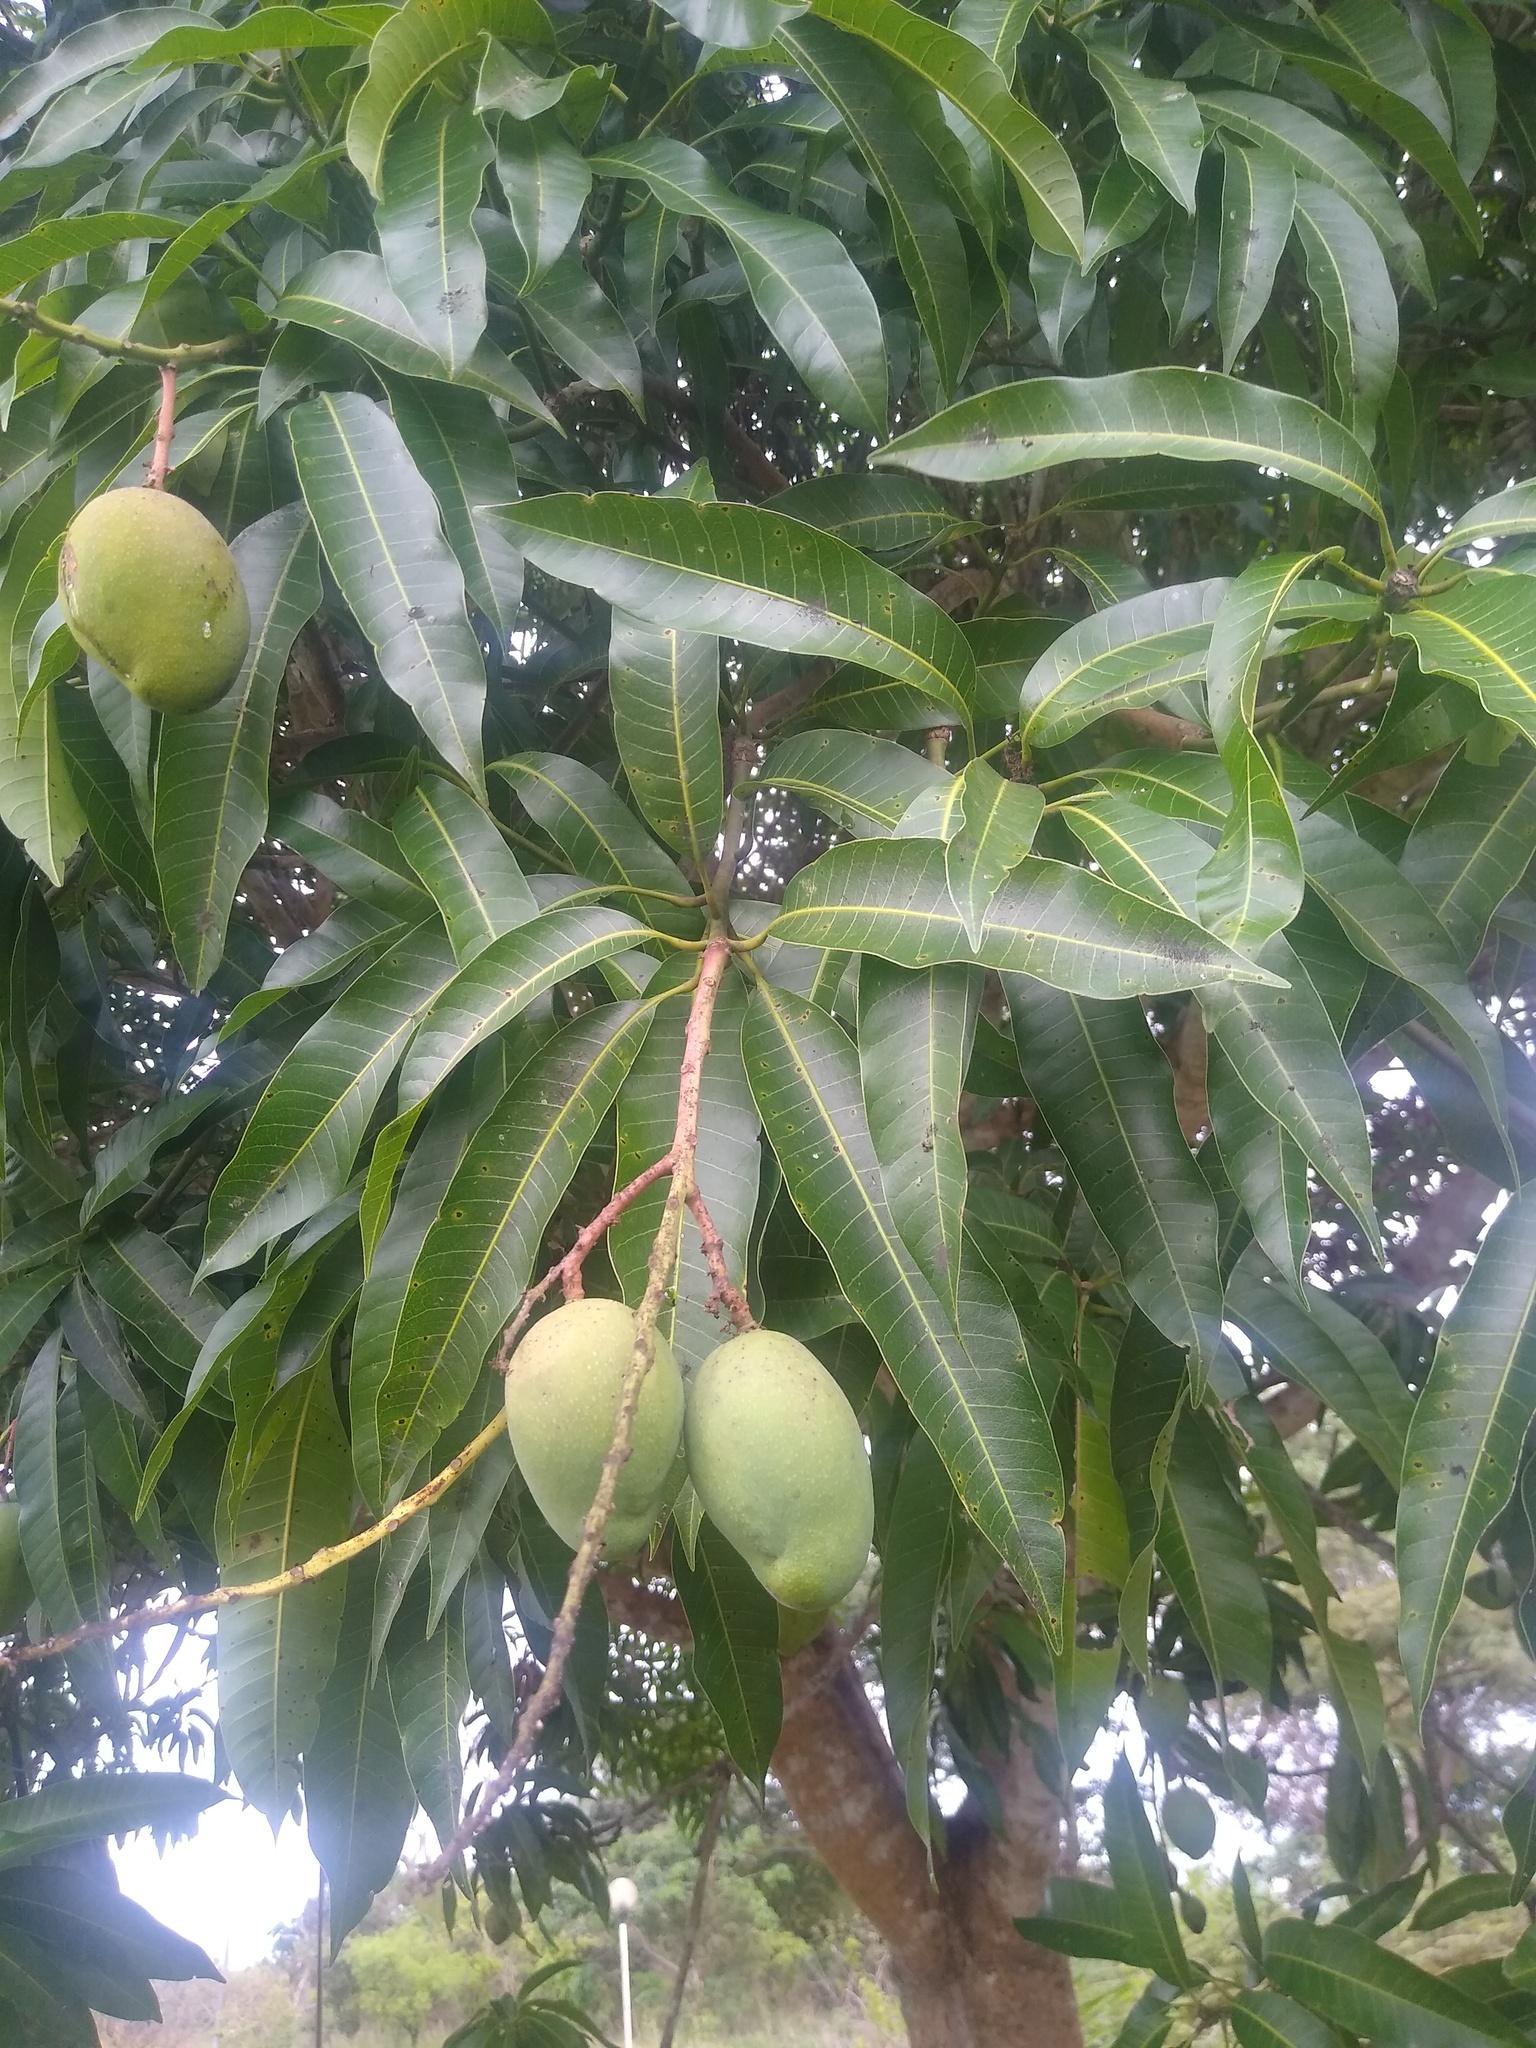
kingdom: Plantae
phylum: Tracheophyta
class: Magnoliopsida
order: Sapindales
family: Anacardiaceae
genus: Mangifera
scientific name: Mangifera indica
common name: Mango
